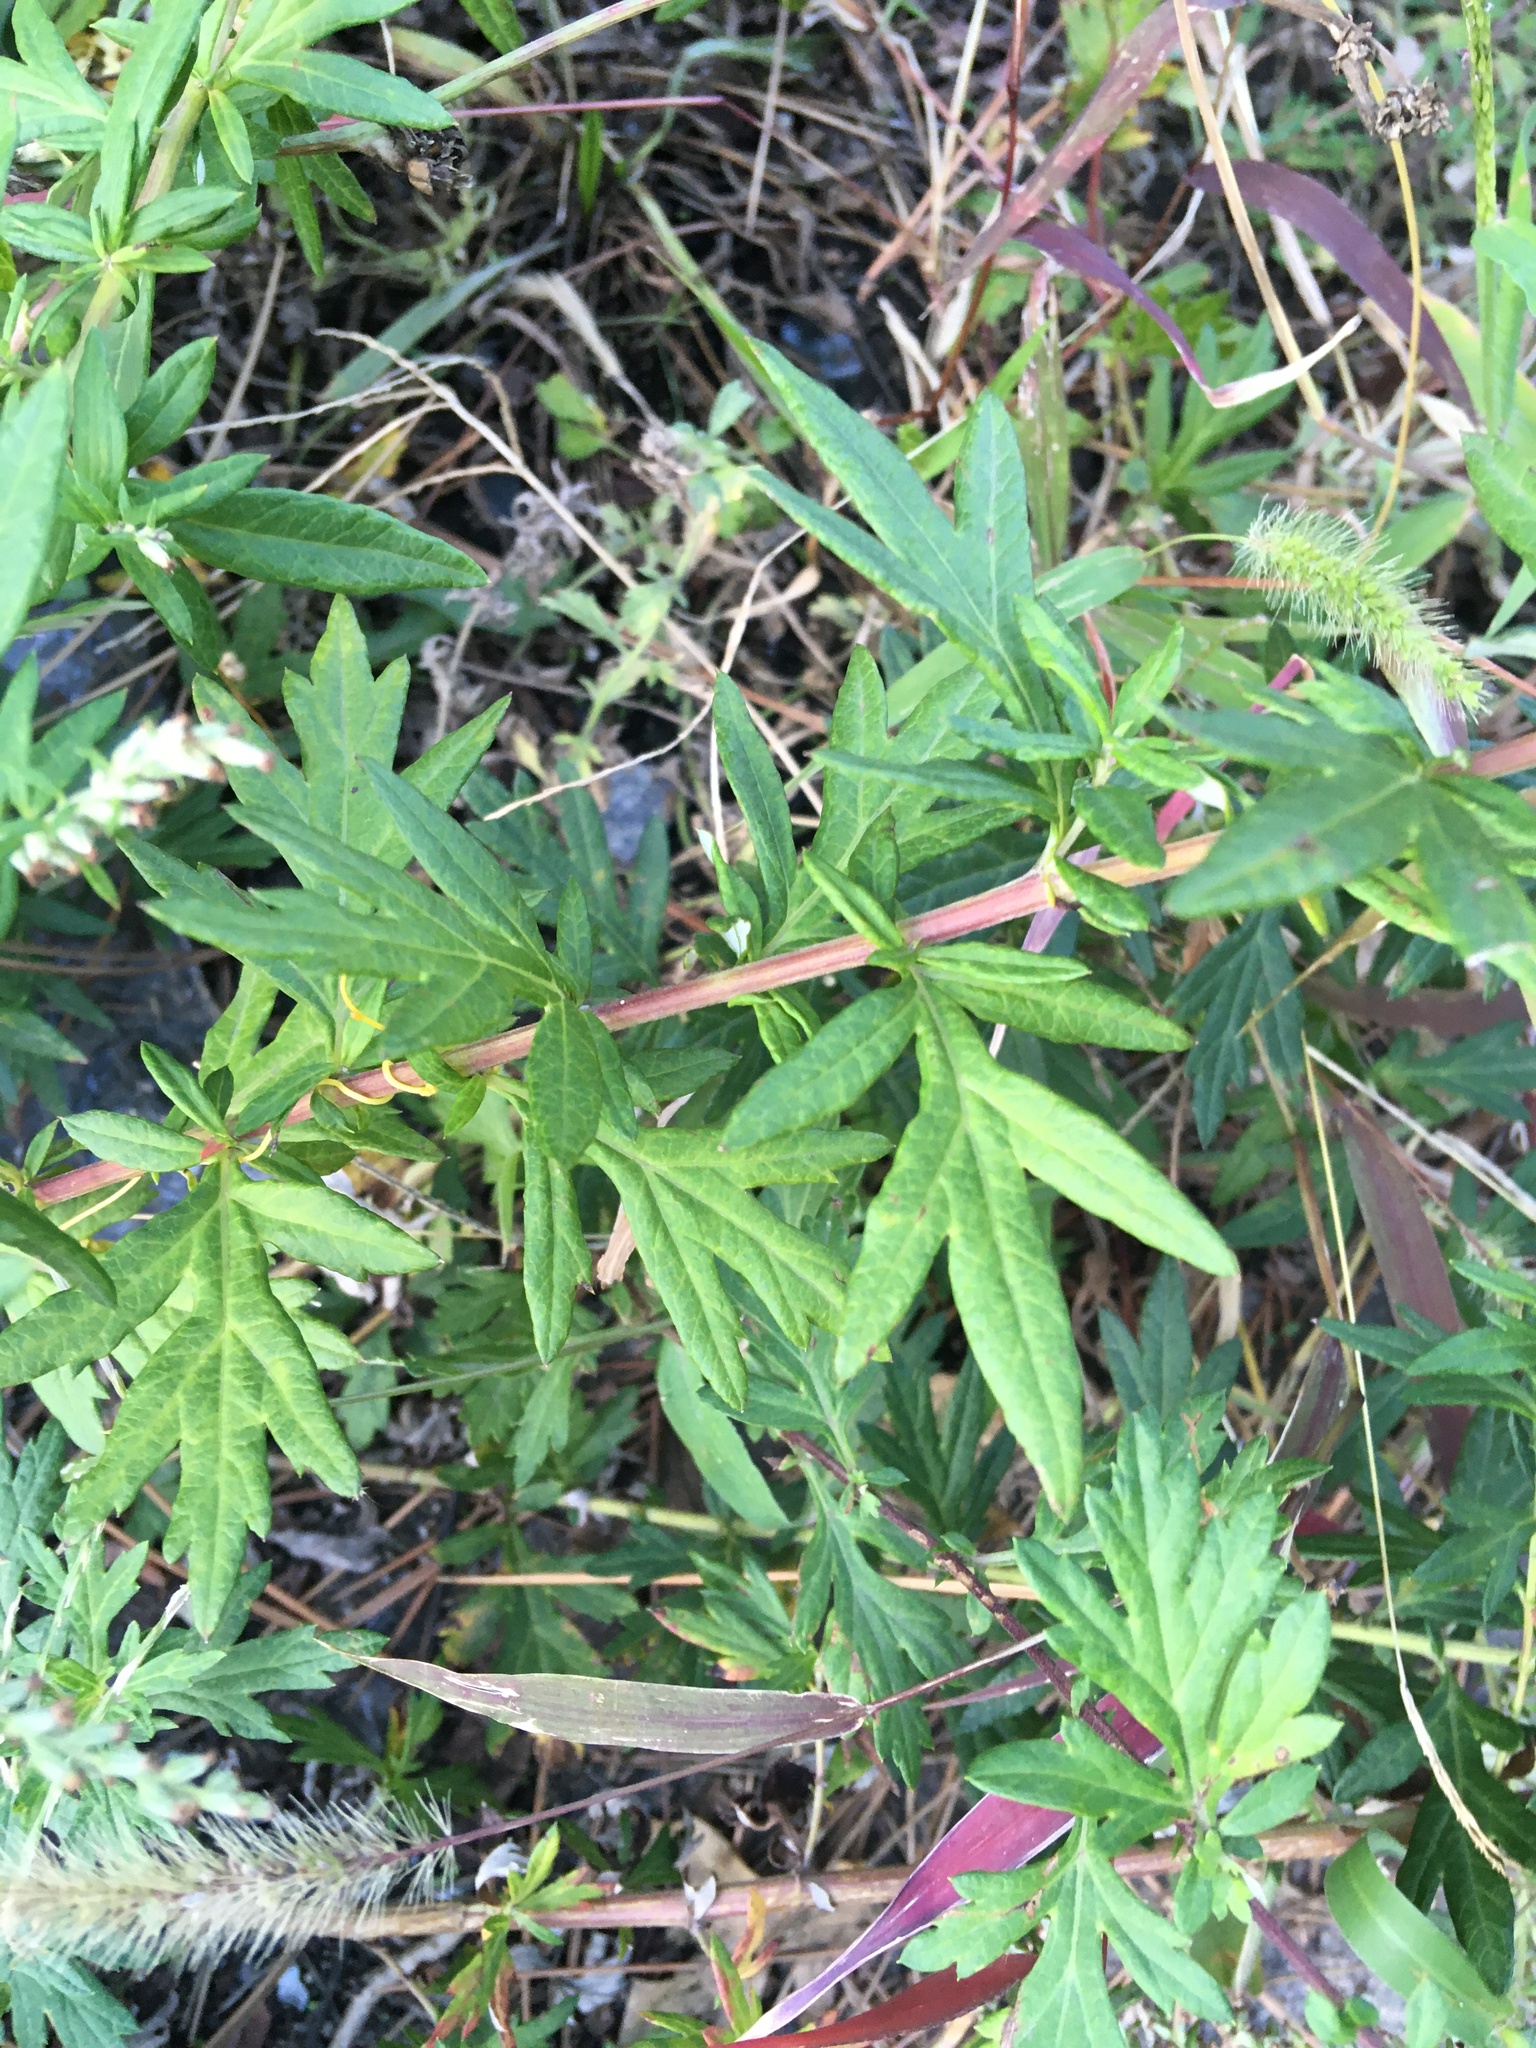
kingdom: Plantae
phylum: Tracheophyta
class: Magnoliopsida
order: Asterales
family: Asteraceae
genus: Artemisia
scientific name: Artemisia vulgaris
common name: Mugwort
